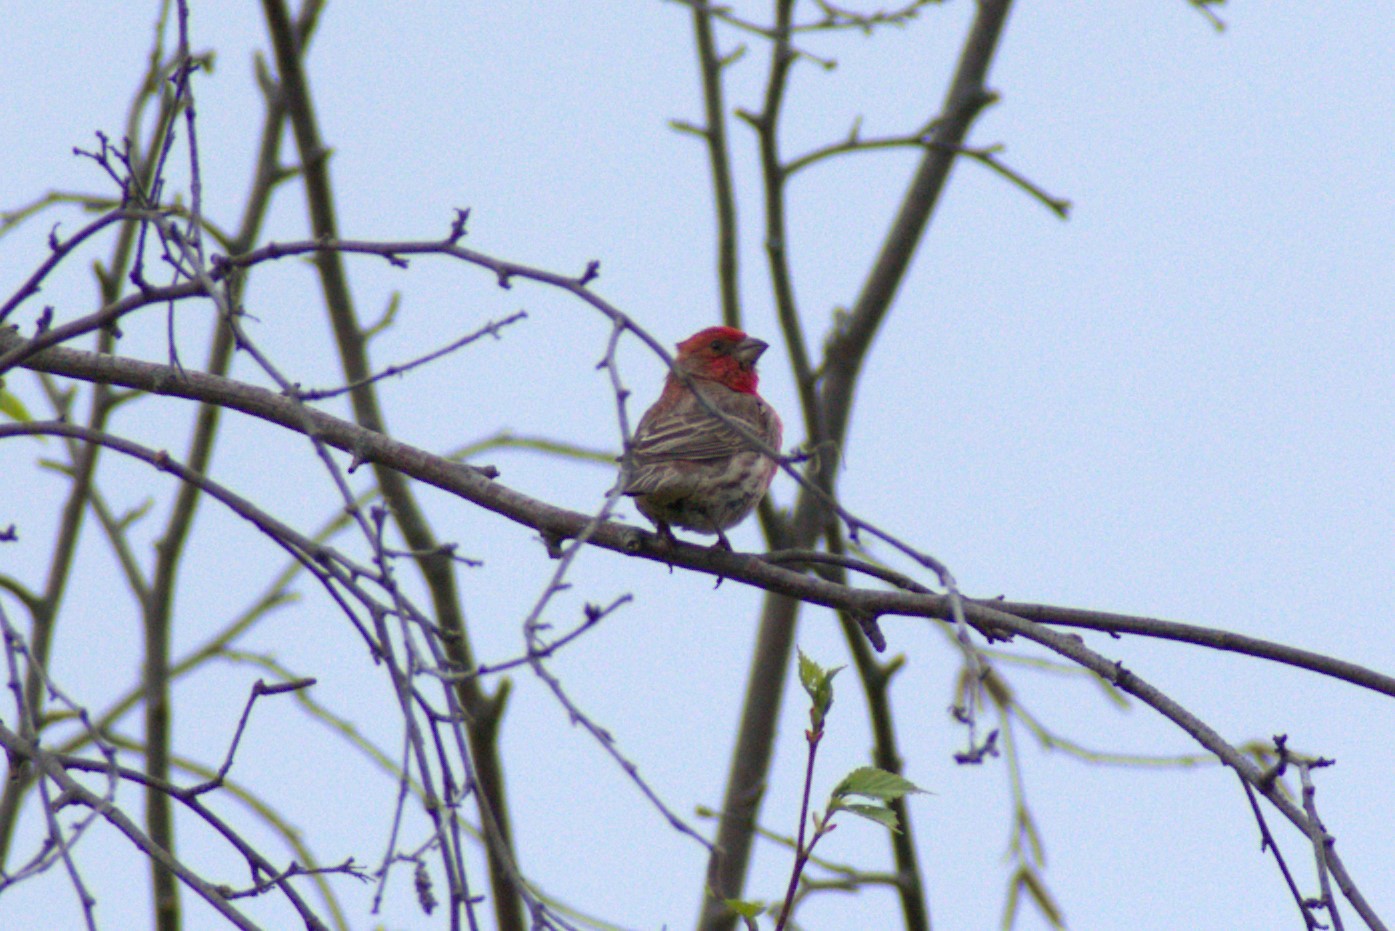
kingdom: Animalia
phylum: Chordata
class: Aves
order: Passeriformes
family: Fringillidae
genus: Haemorhous
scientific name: Haemorhous mexicanus
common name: House finch
